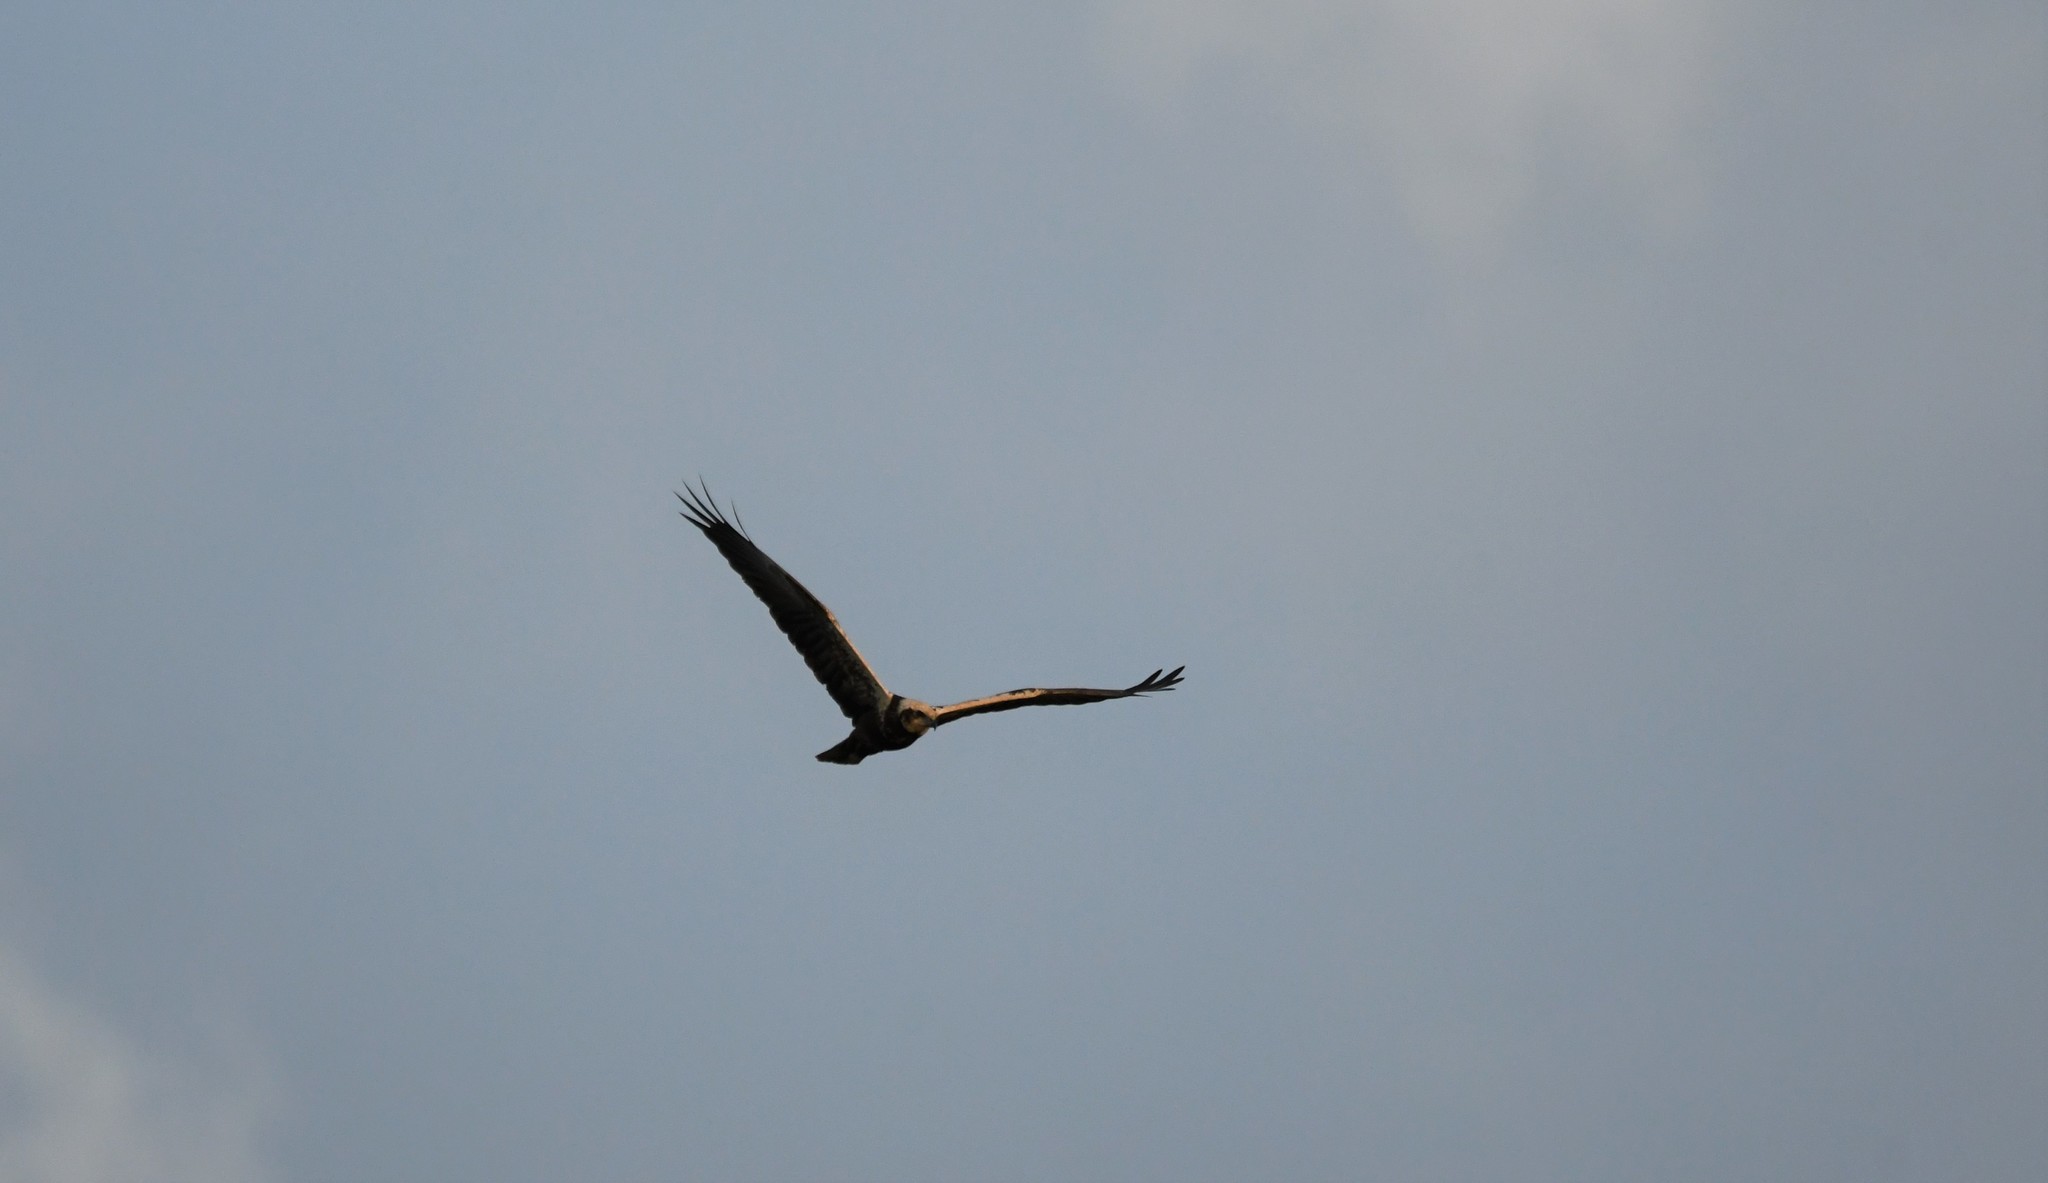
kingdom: Animalia
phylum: Chordata
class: Aves
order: Accipitriformes
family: Accipitridae
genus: Circus
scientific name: Circus aeruginosus
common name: Western marsh harrier
